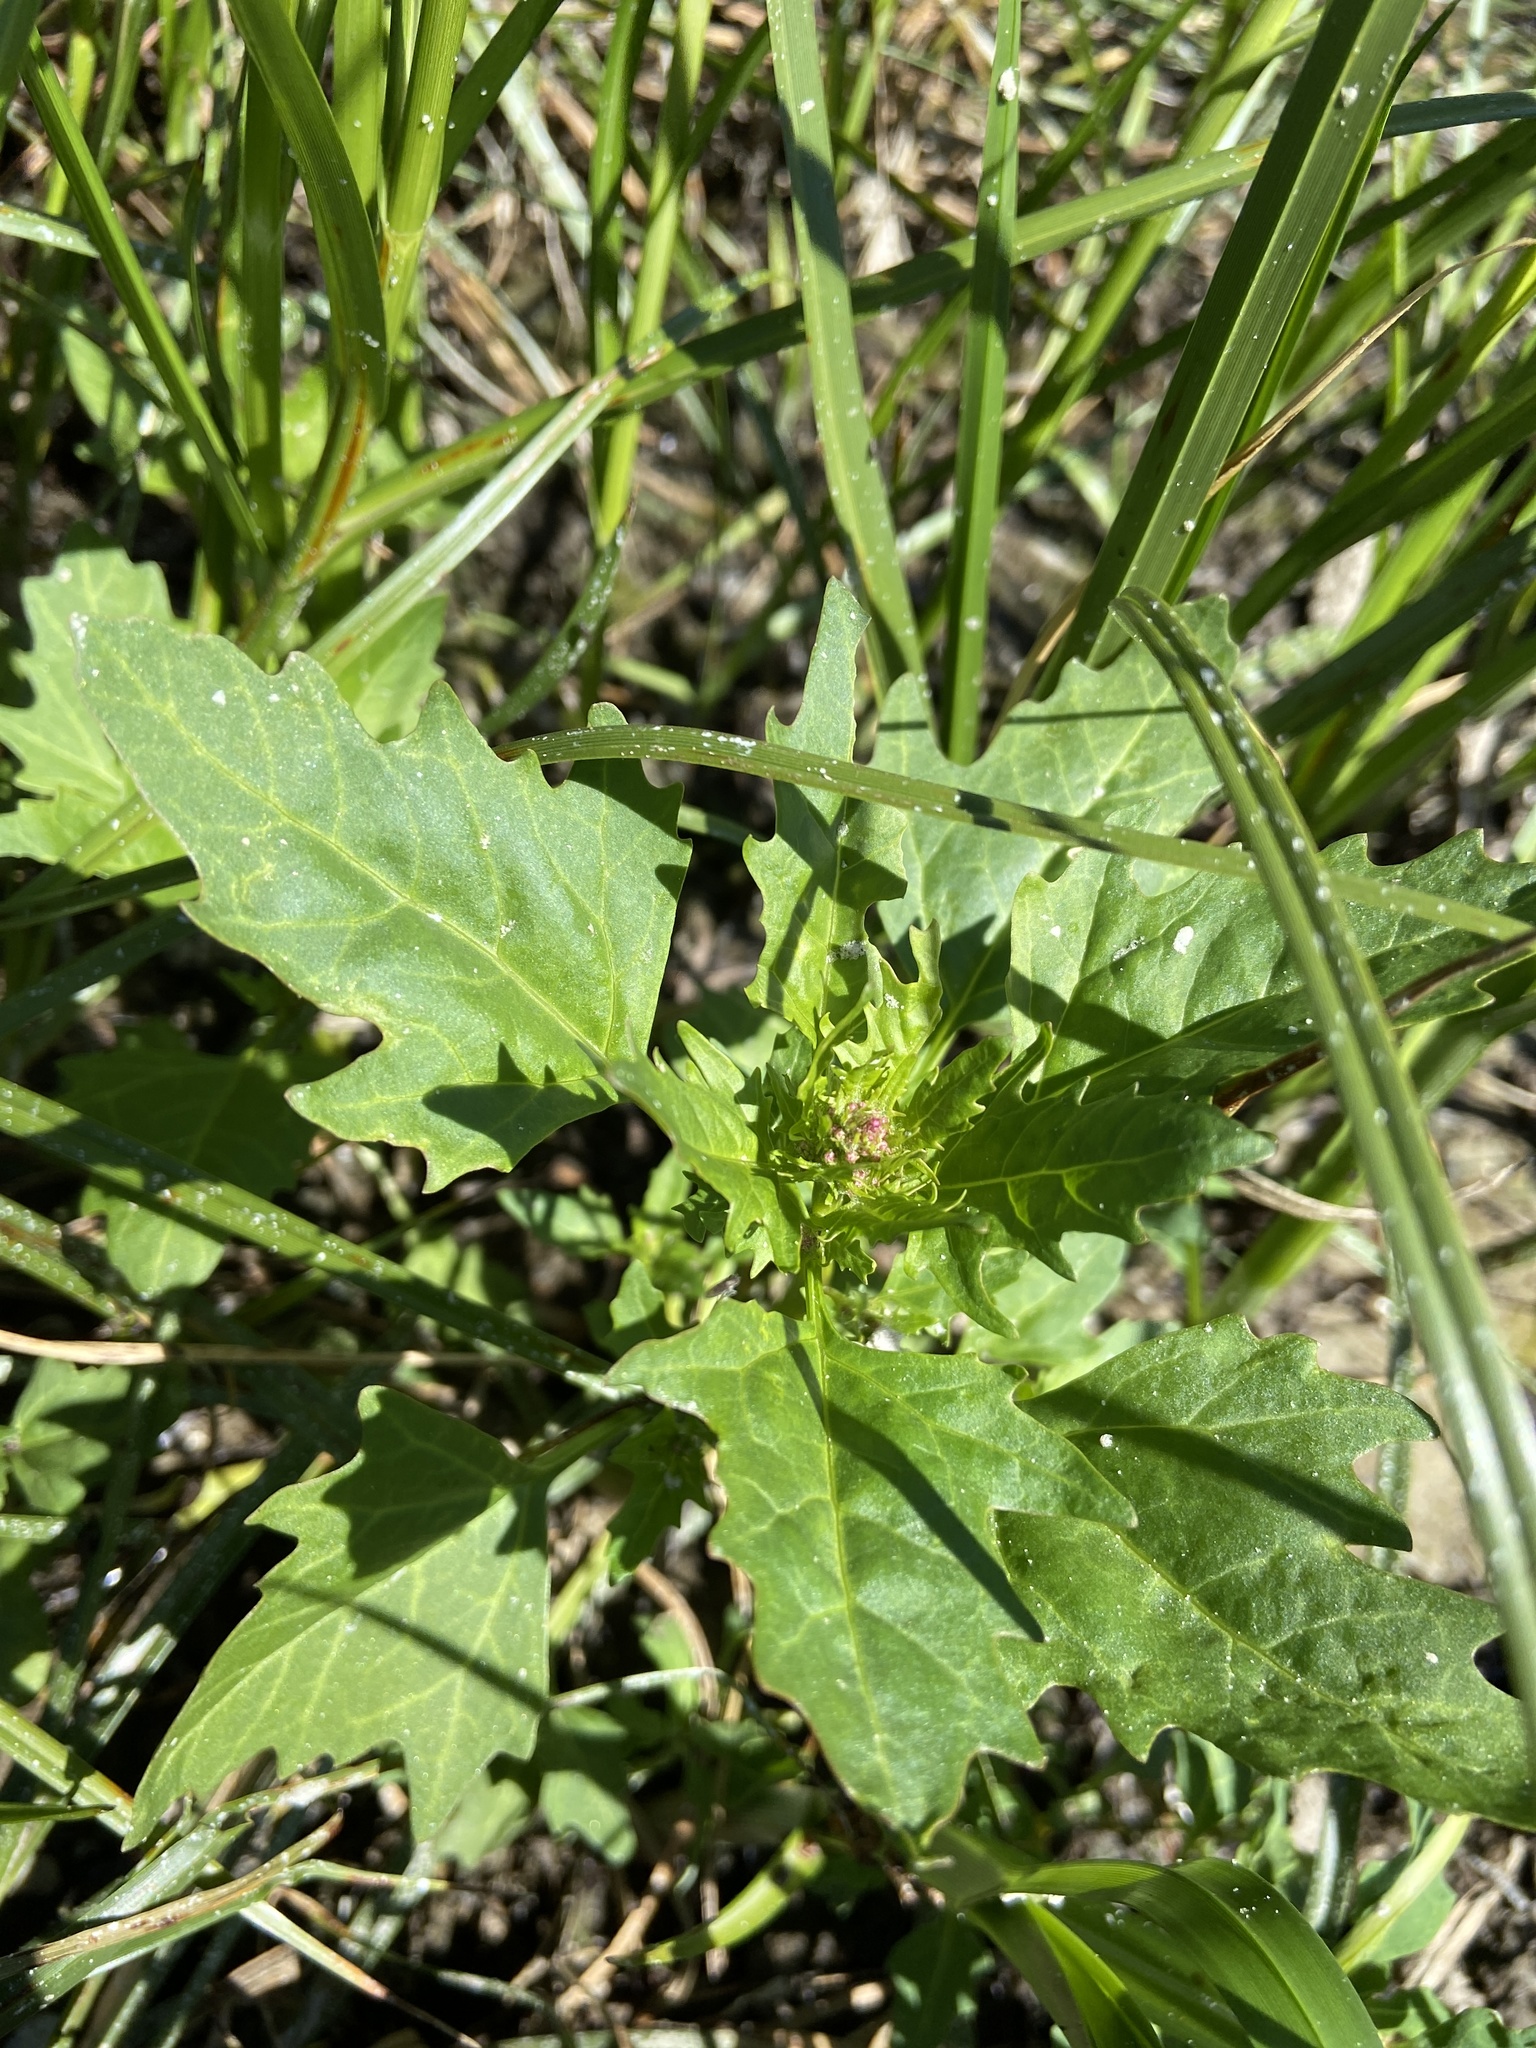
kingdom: Plantae
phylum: Tracheophyta
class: Magnoliopsida
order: Caryophyllales
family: Amaranthaceae
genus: Oxybasis
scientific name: Oxybasis rubra
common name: Red goosefoot
